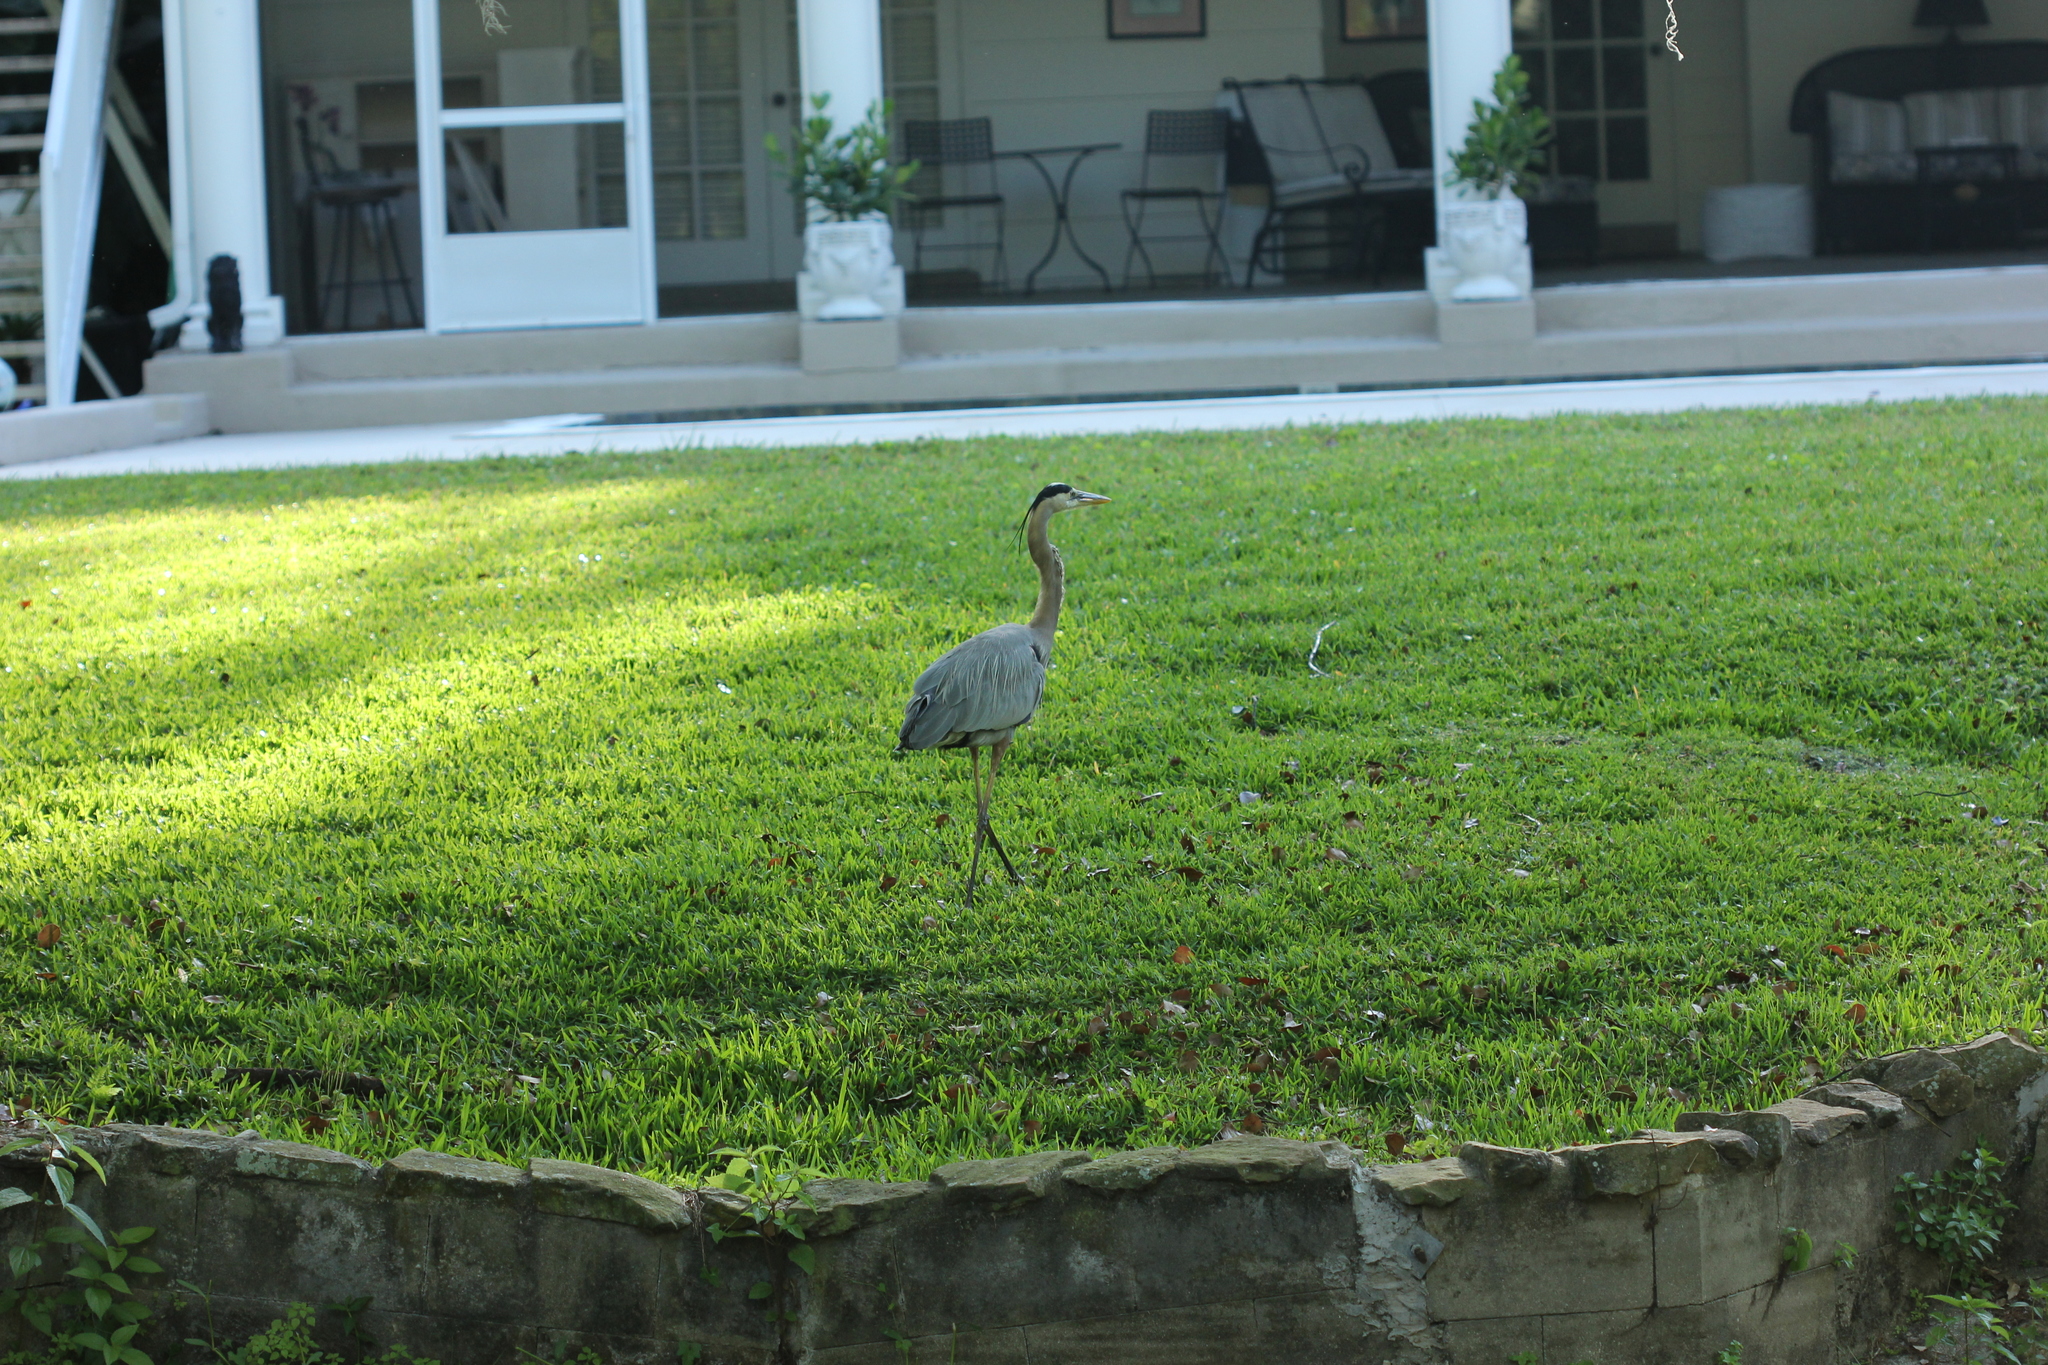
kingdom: Animalia
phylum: Chordata
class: Aves
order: Pelecaniformes
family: Ardeidae
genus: Ardea
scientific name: Ardea herodias
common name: Great blue heron
